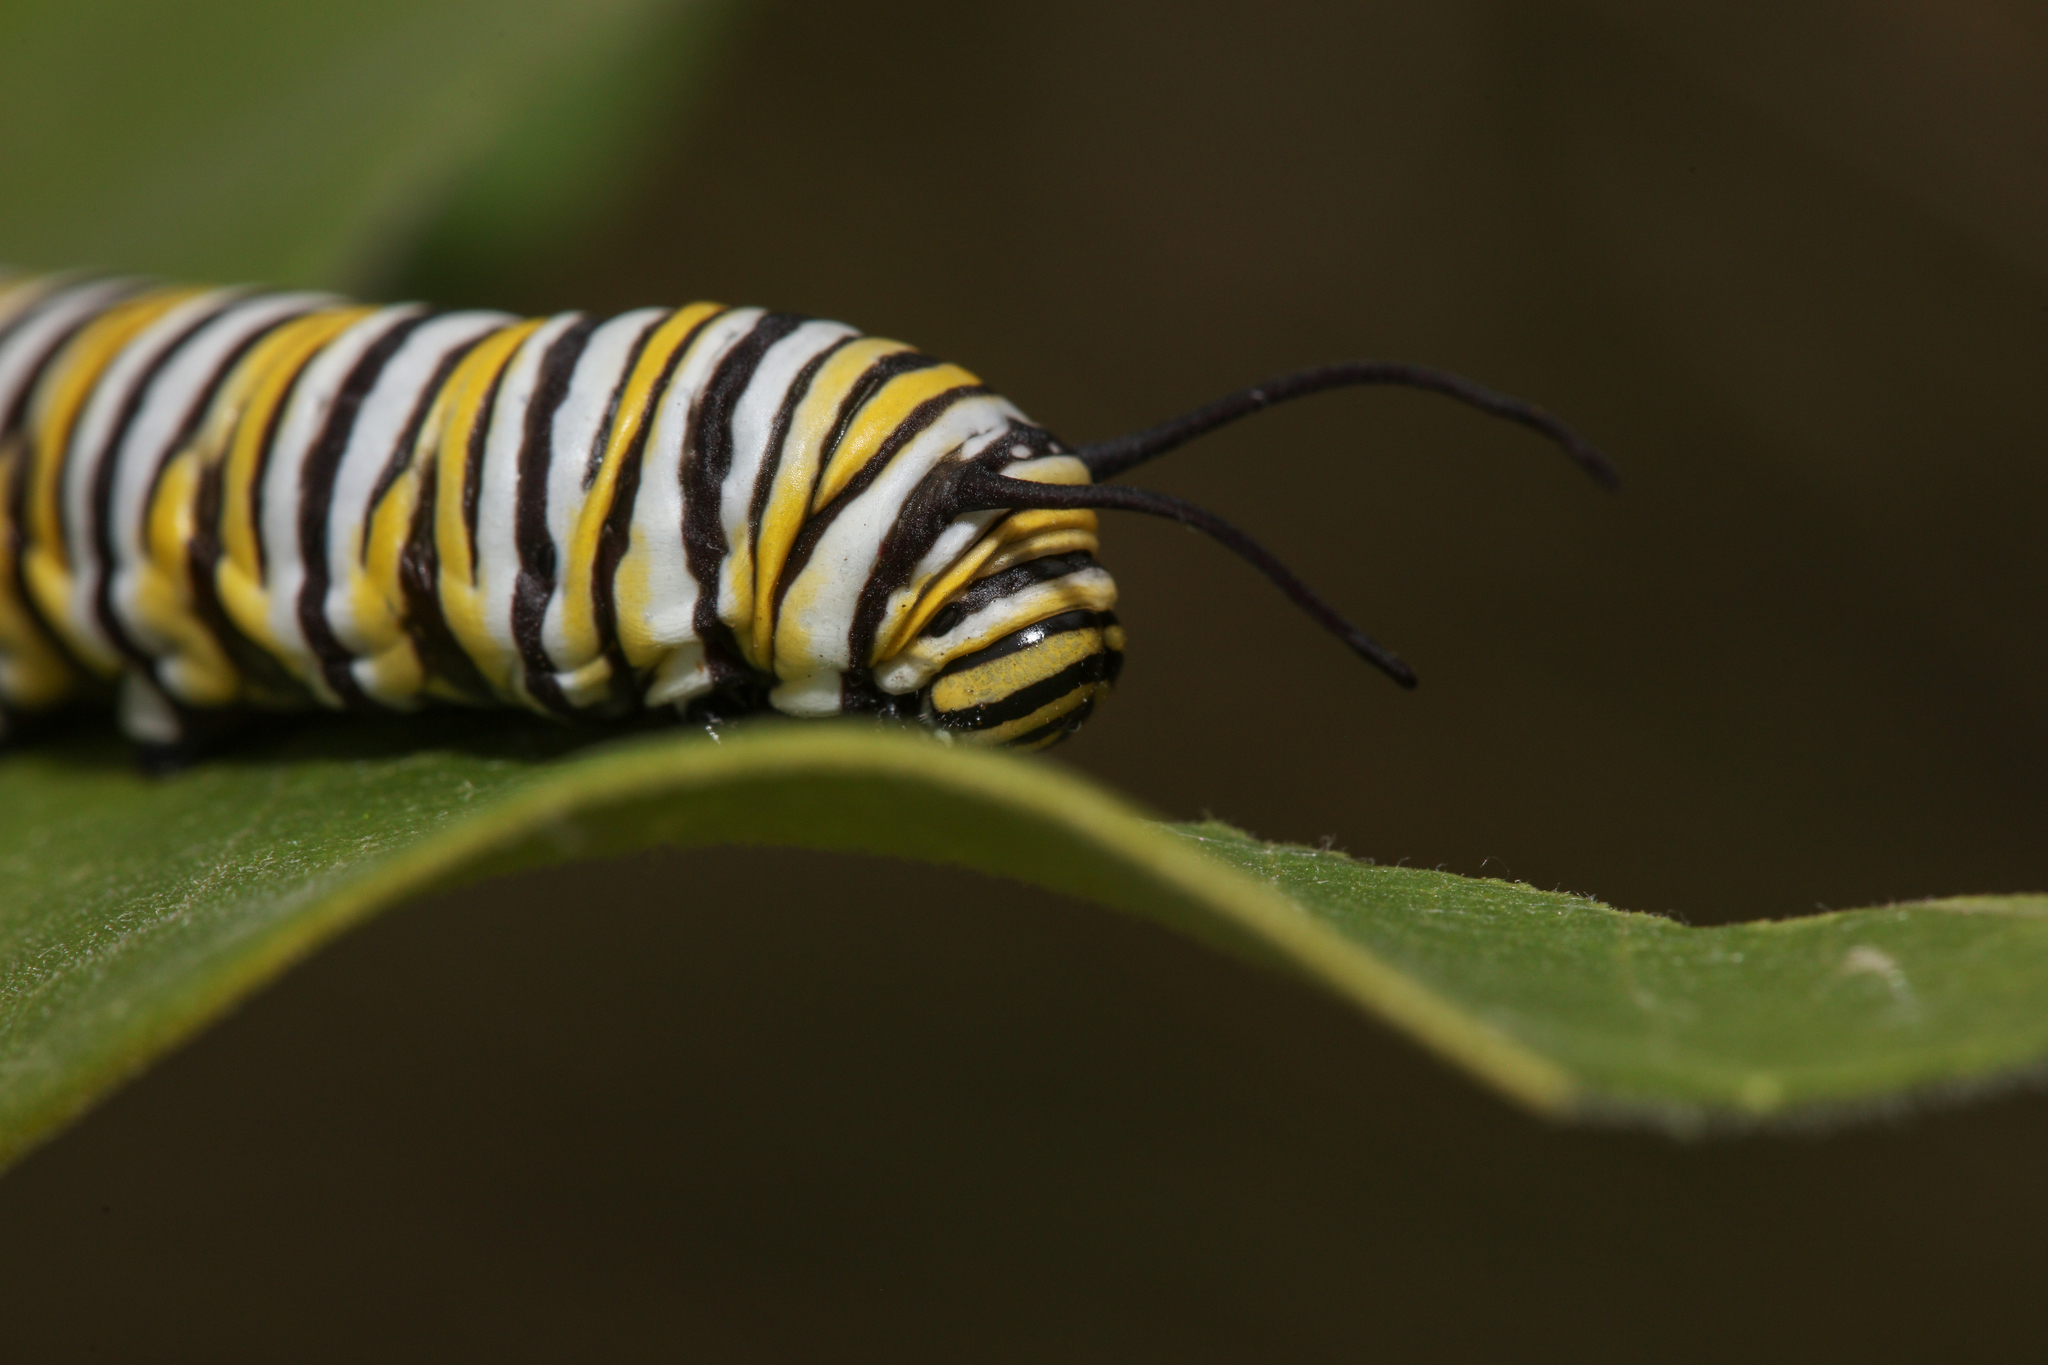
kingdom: Animalia
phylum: Arthropoda
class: Insecta
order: Lepidoptera
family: Nymphalidae
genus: Danaus
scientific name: Danaus plexippus
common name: Monarch
